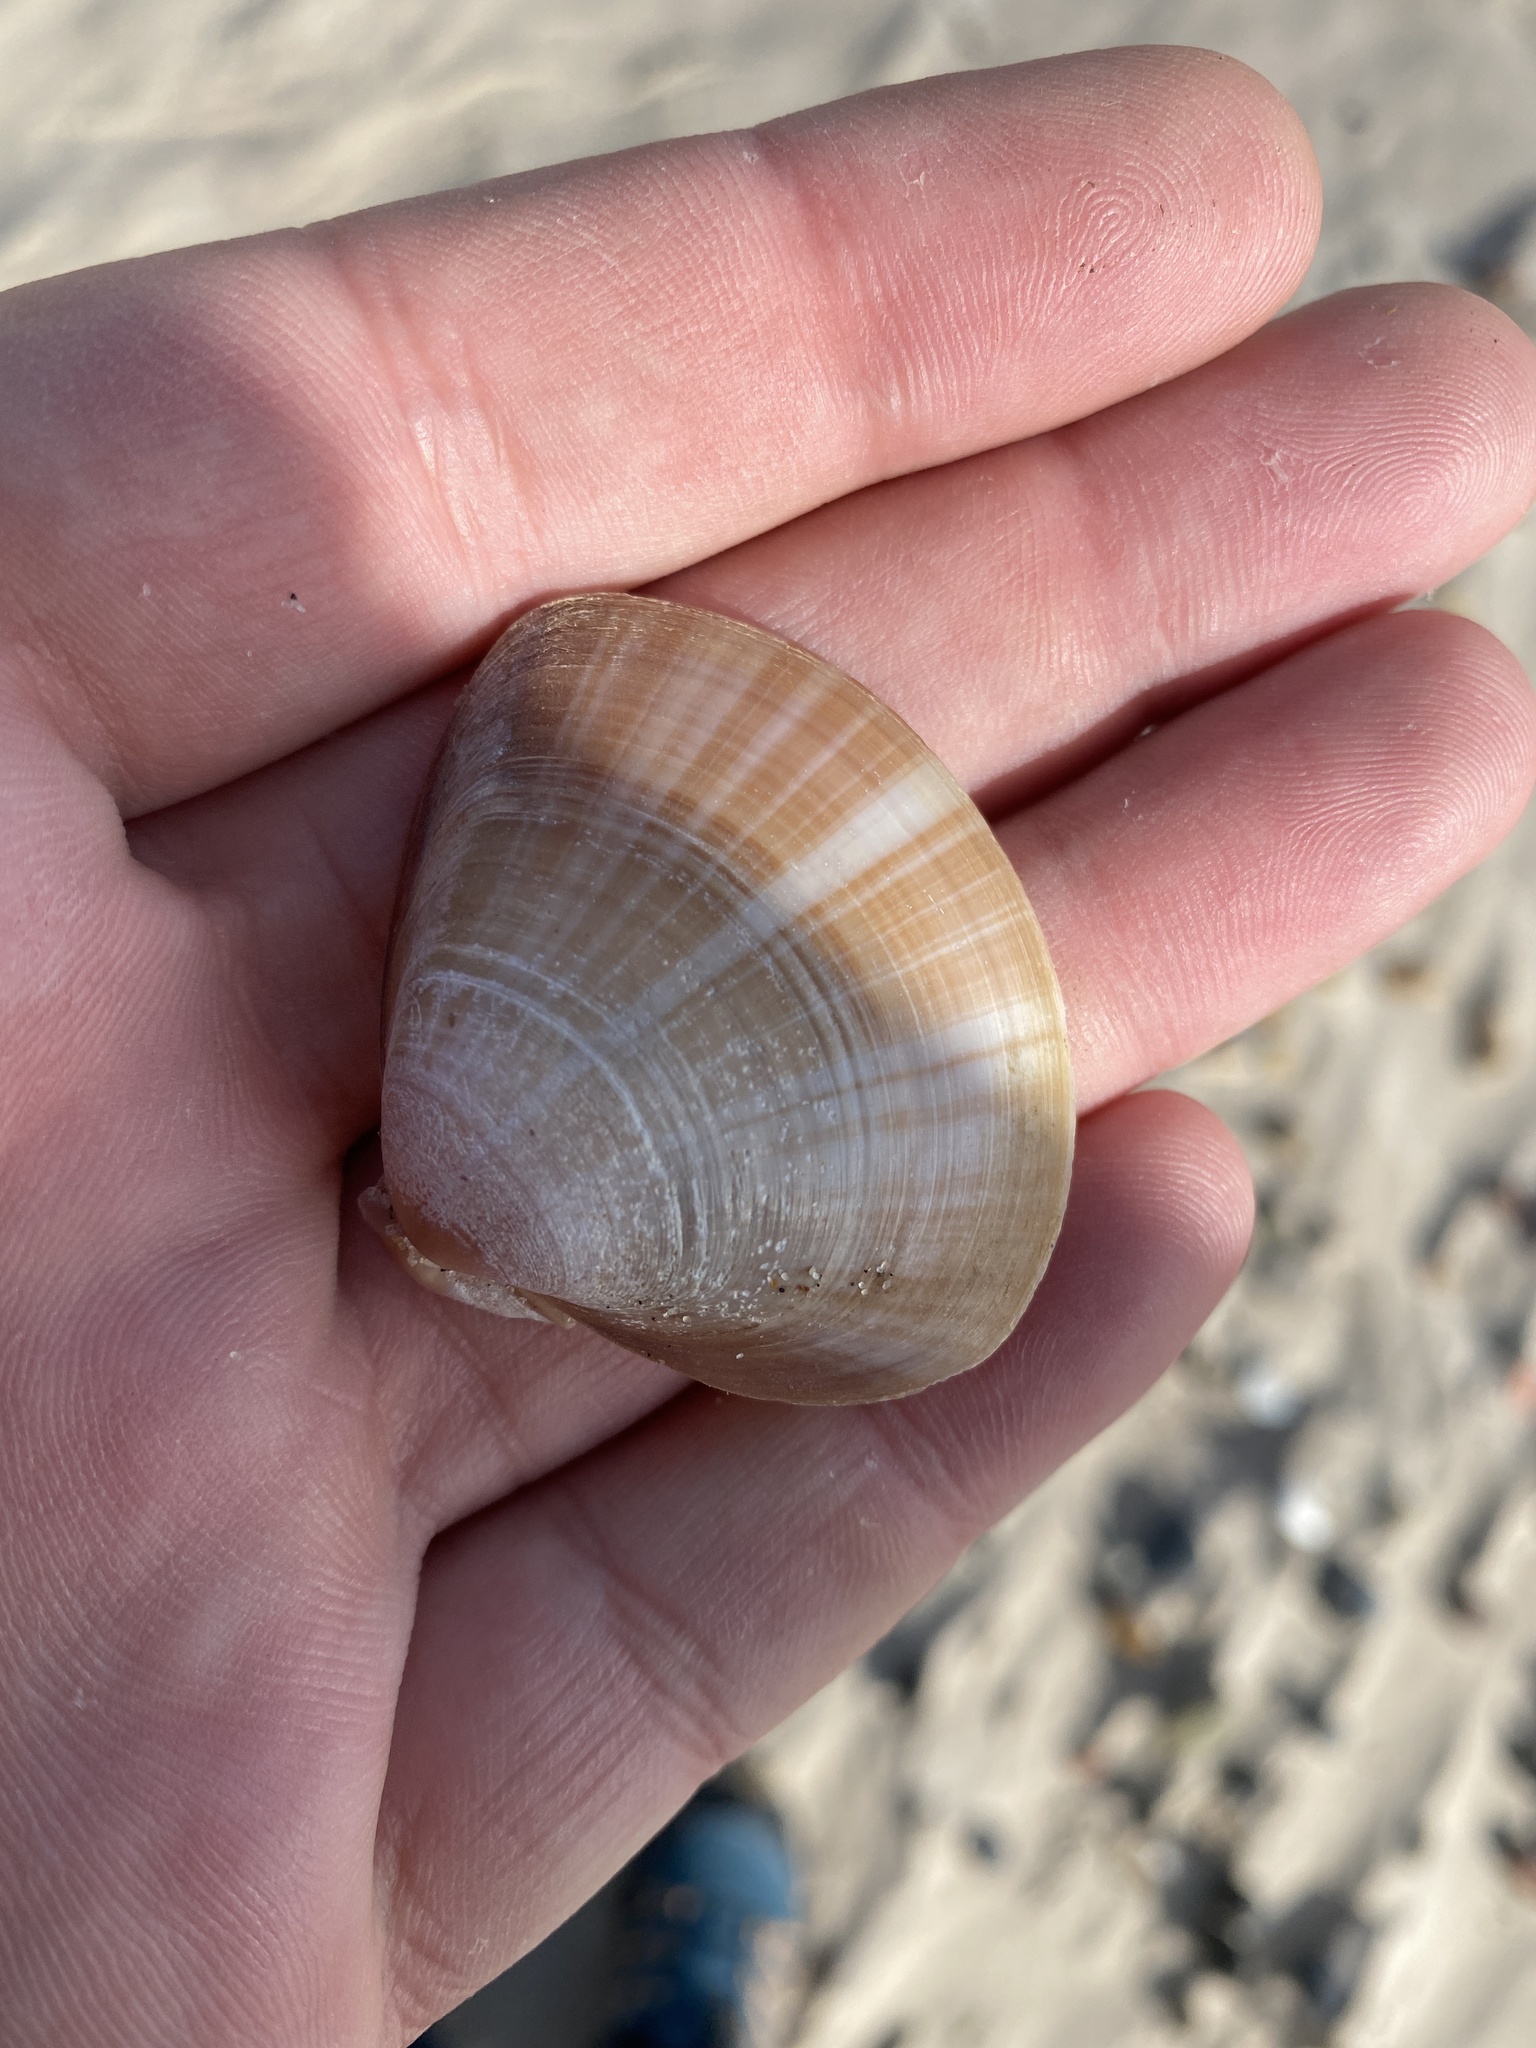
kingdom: Animalia
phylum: Mollusca
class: Bivalvia
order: Venerida
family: Mactridae
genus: Mactra
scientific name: Mactra stultorum
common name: Rayed trough shell
